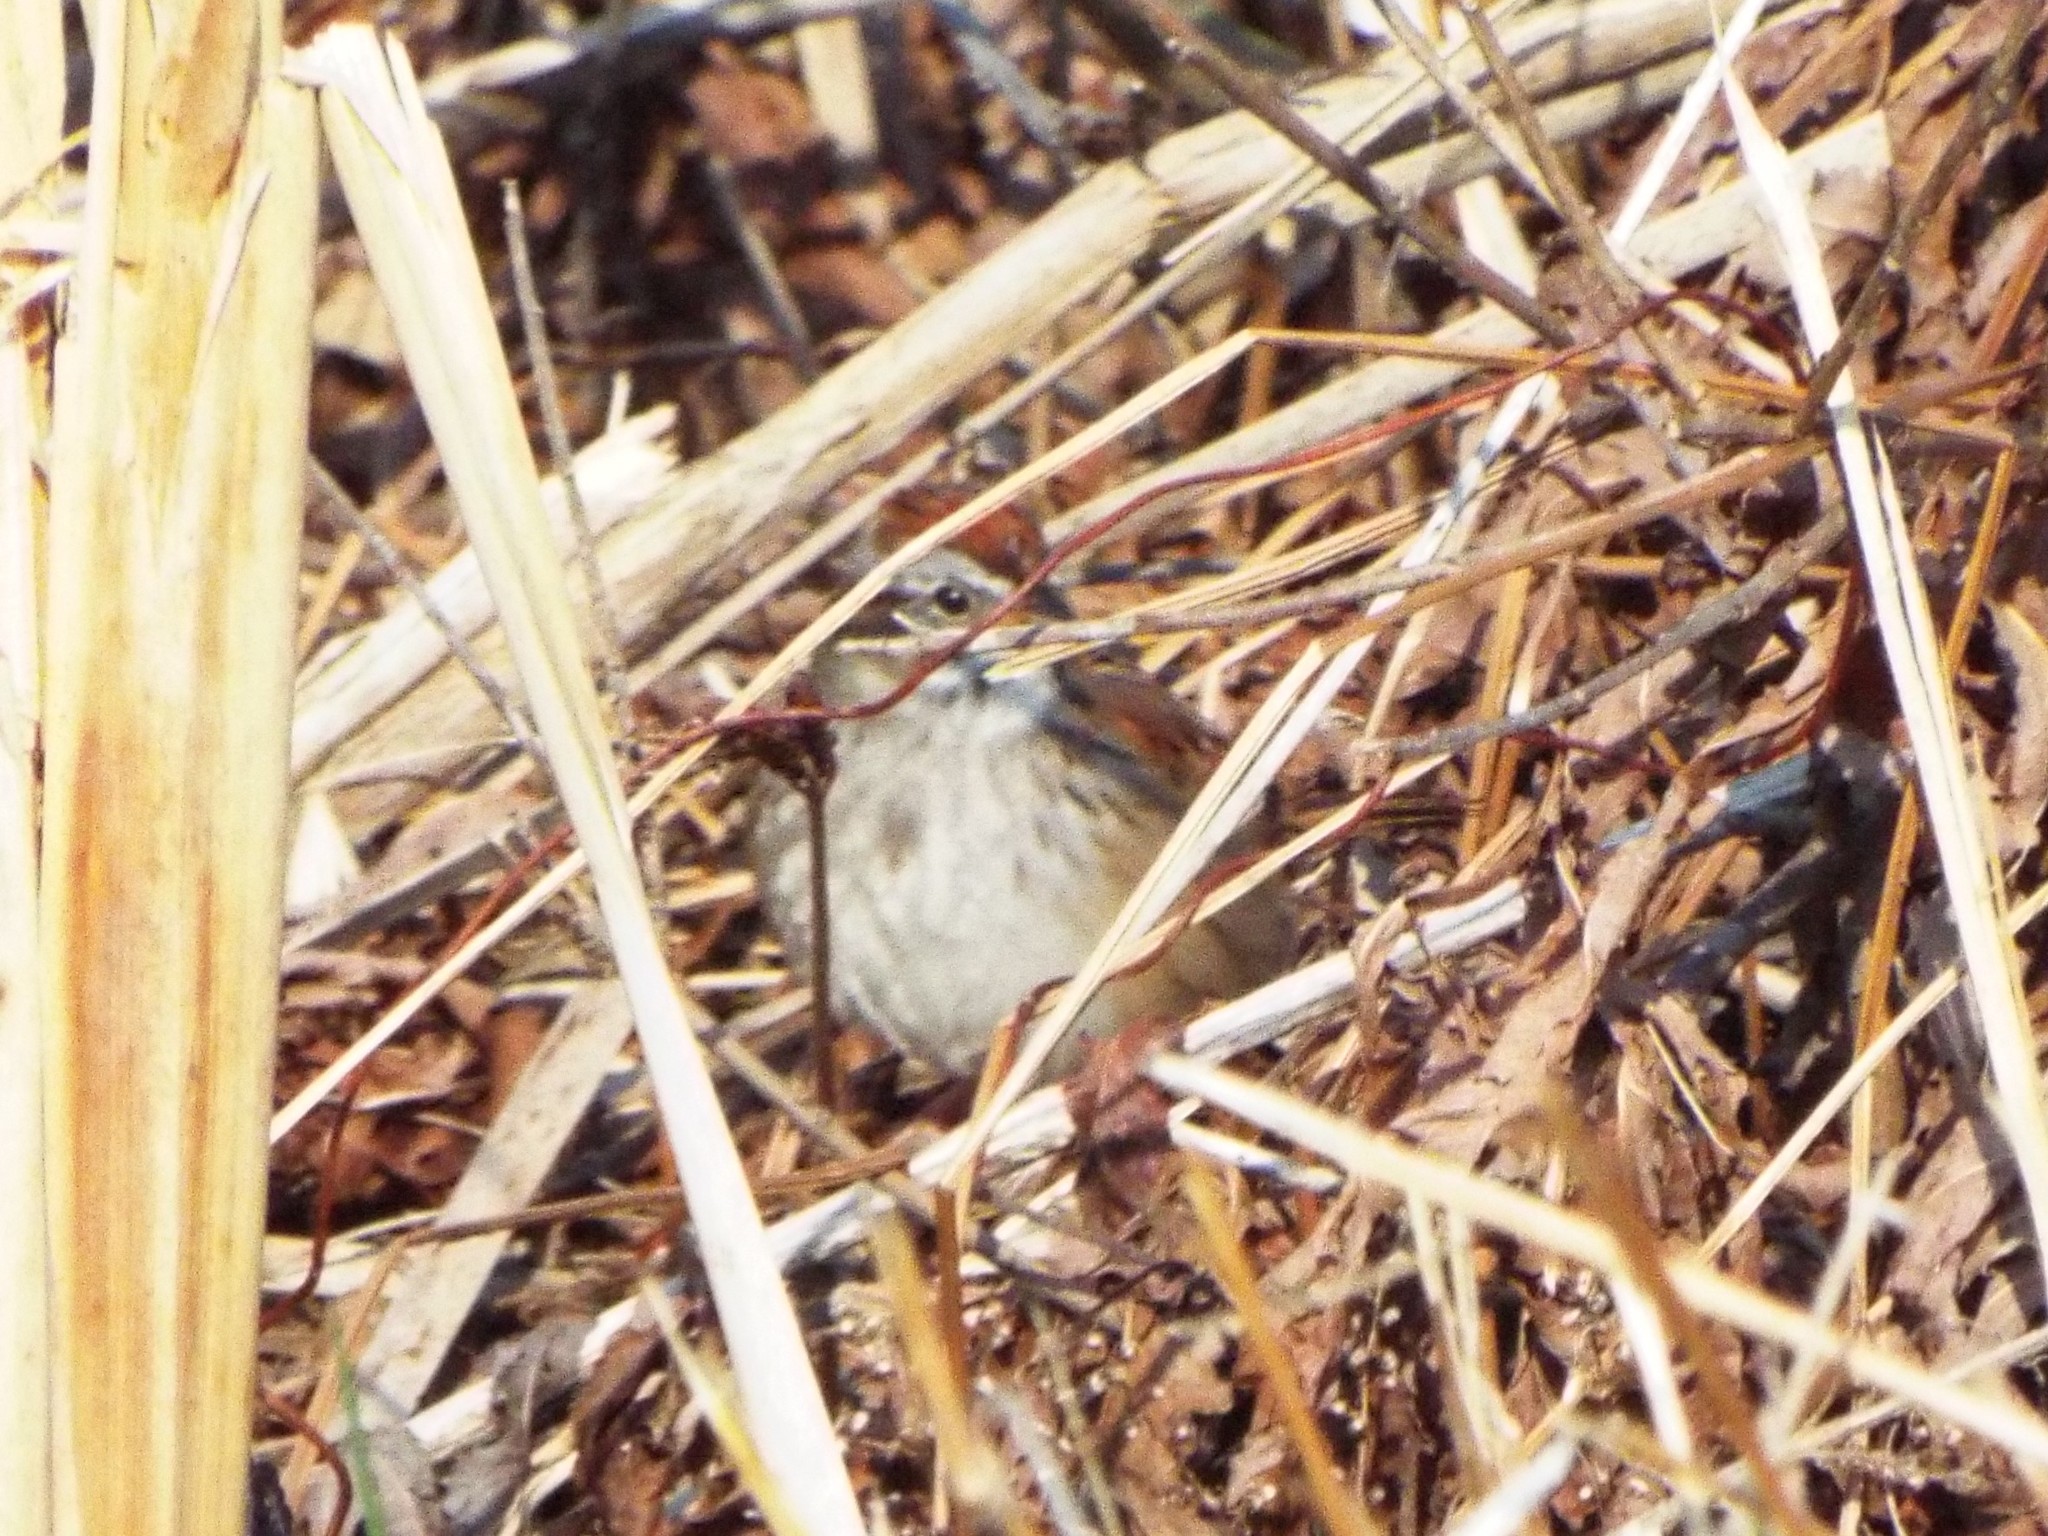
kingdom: Animalia
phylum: Chordata
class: Aves
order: Passeriformes
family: Passerellidae
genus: Melospiza
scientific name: Melospiza georgiana
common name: Swamp sparrow
